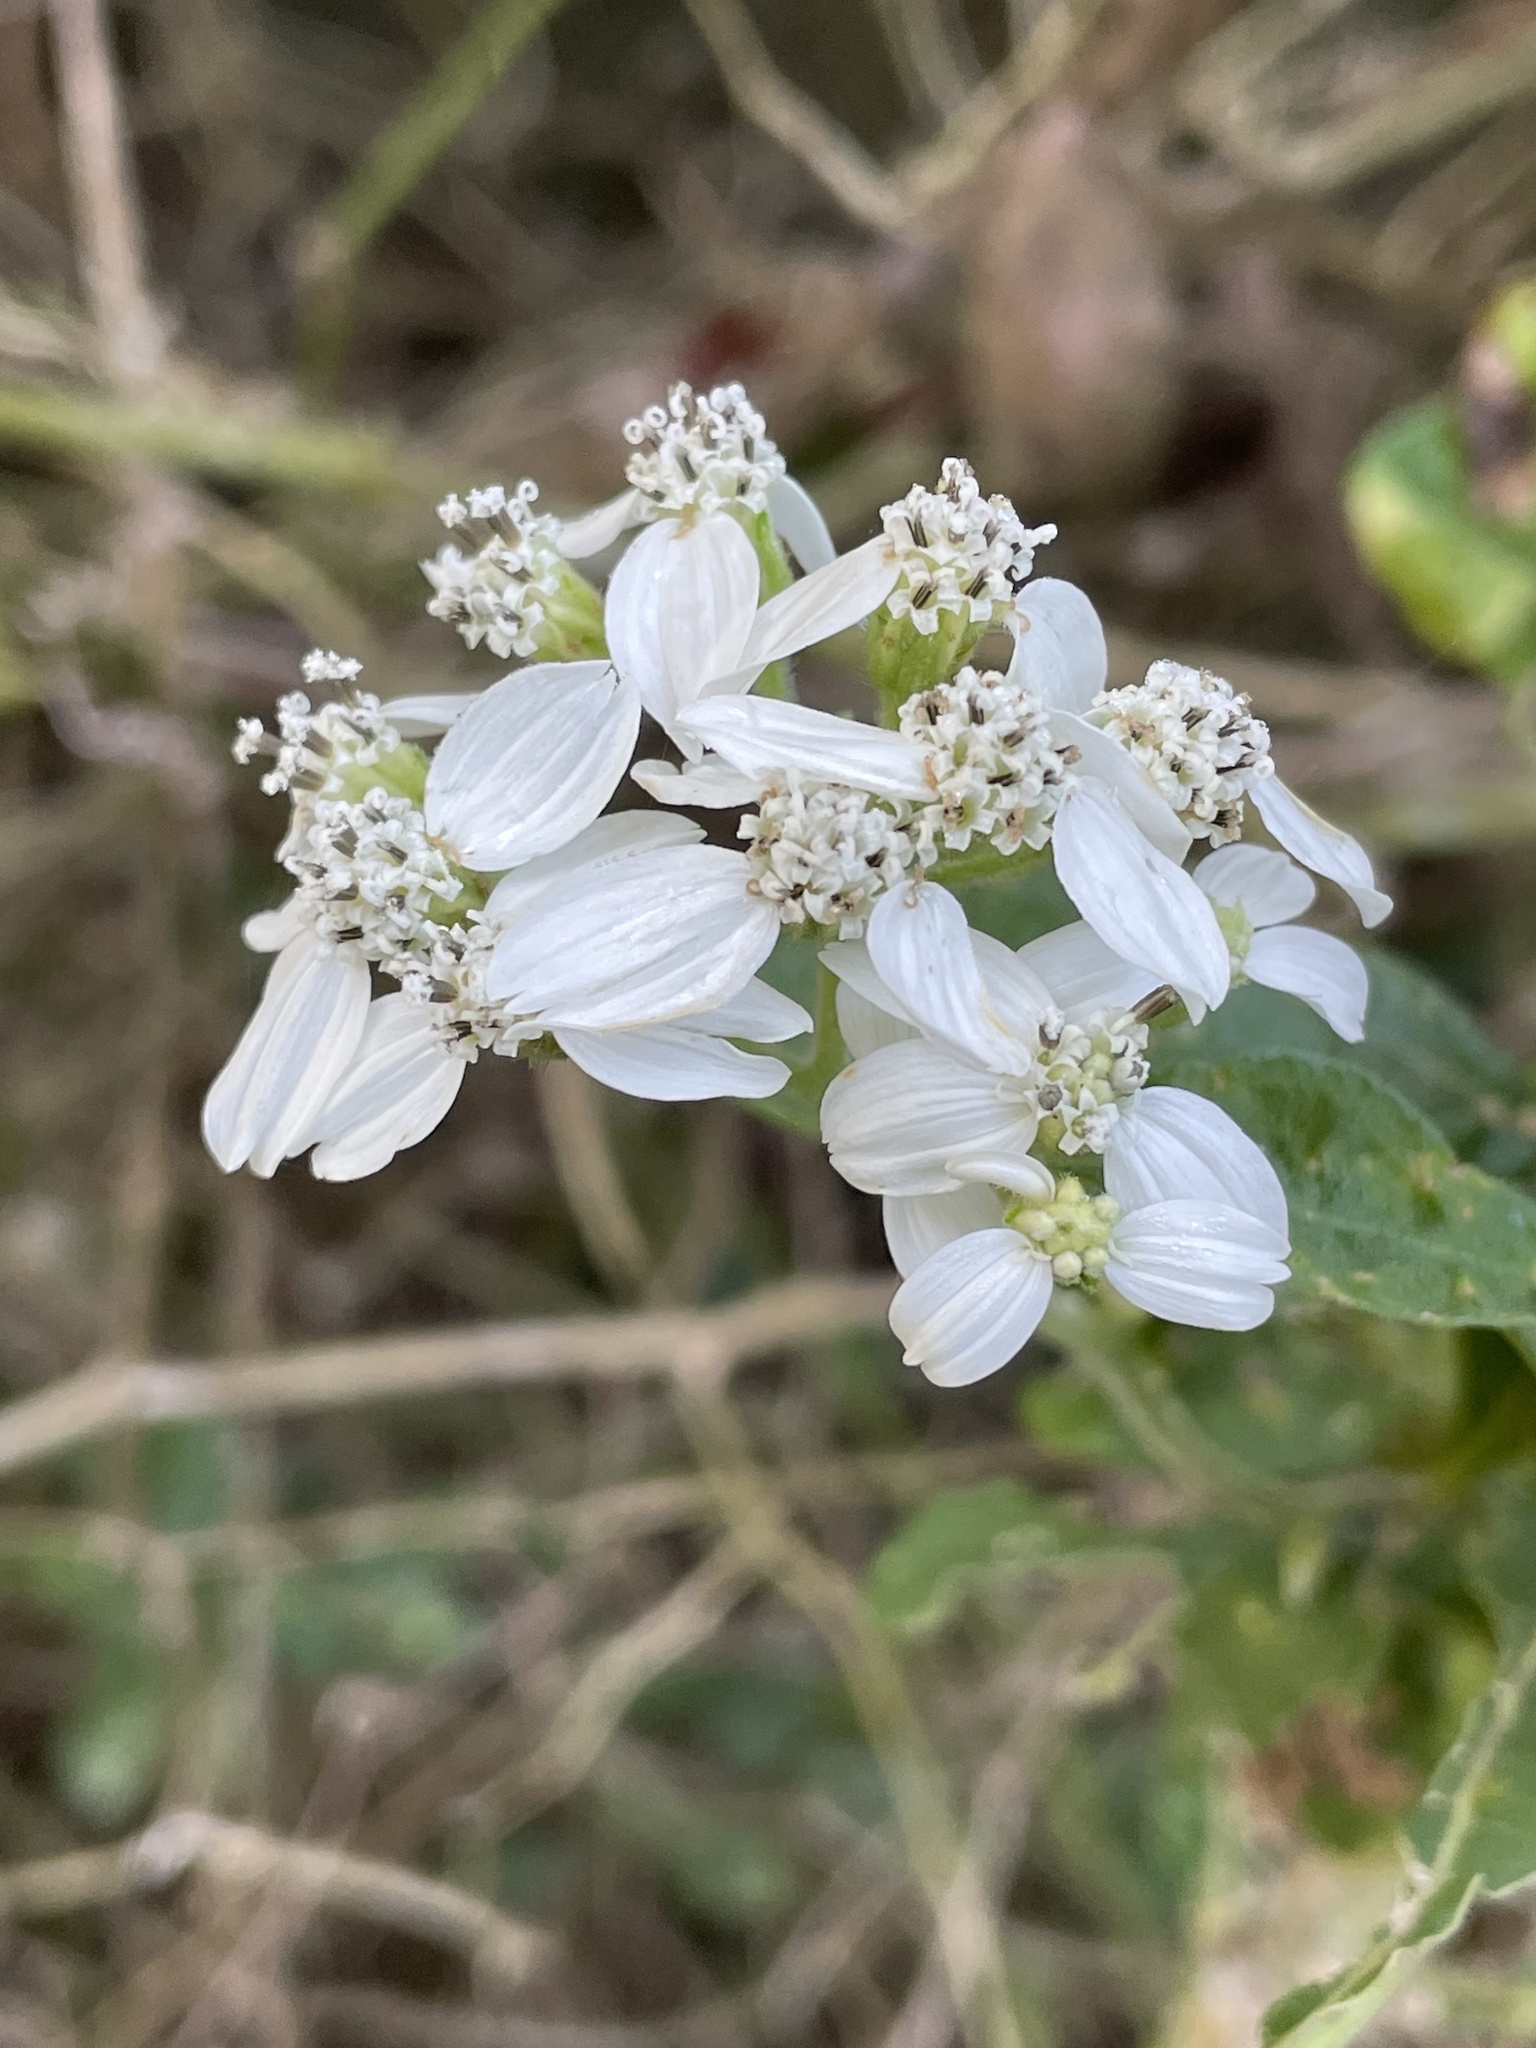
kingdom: Plantae
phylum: Tracheophyta
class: Magnoliopsida
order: Asterales
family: Asteraceae
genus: Verbesina
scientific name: Verbesina virginica
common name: Frostweed
